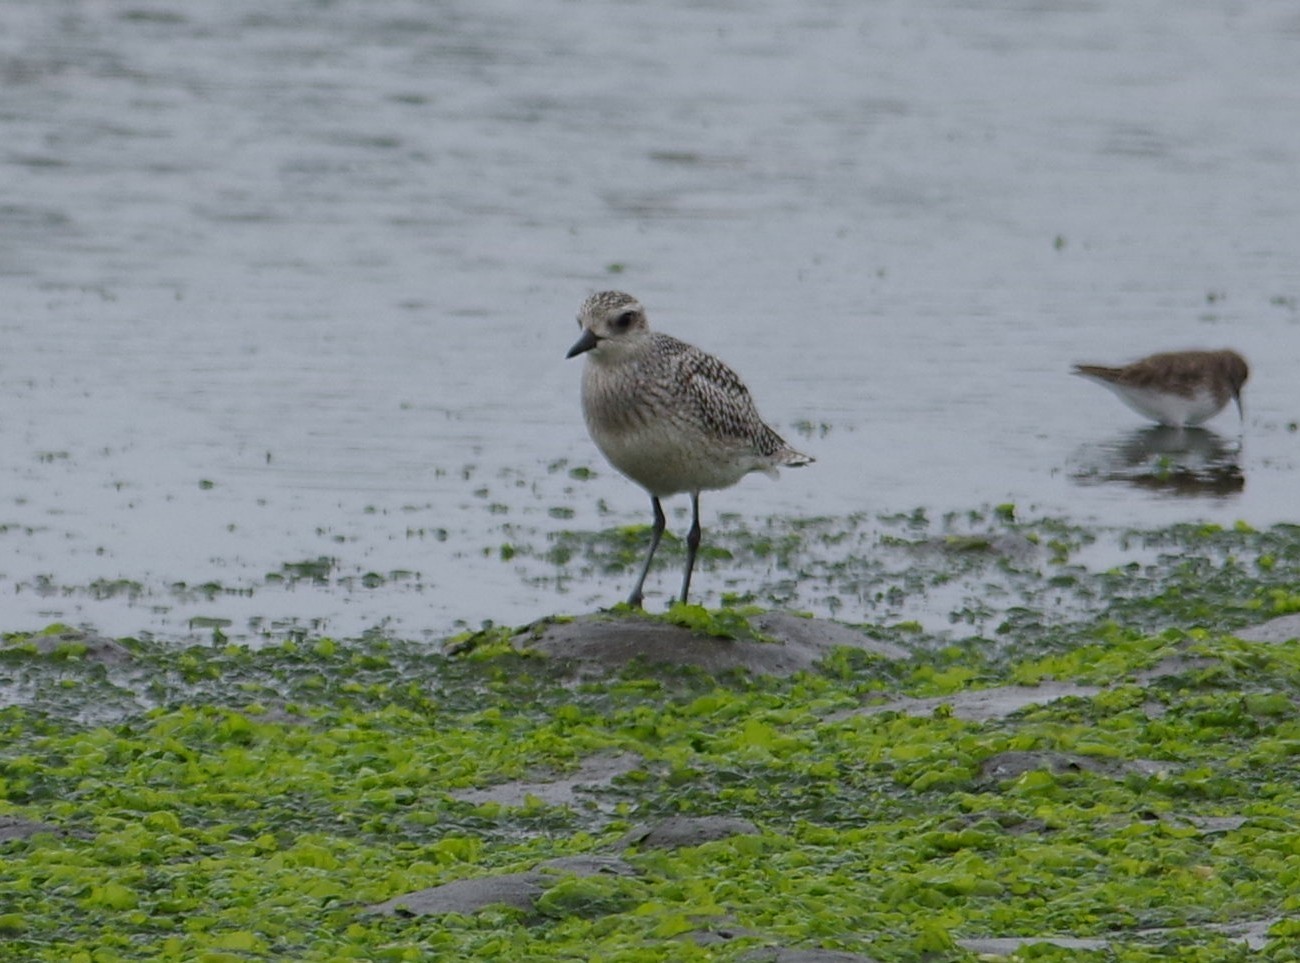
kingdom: Animalia
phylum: Chordata
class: Aves
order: Charadriiformes
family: Charadriidae
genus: Pluvialis
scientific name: Pluvialis squatarola
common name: Grey plover
